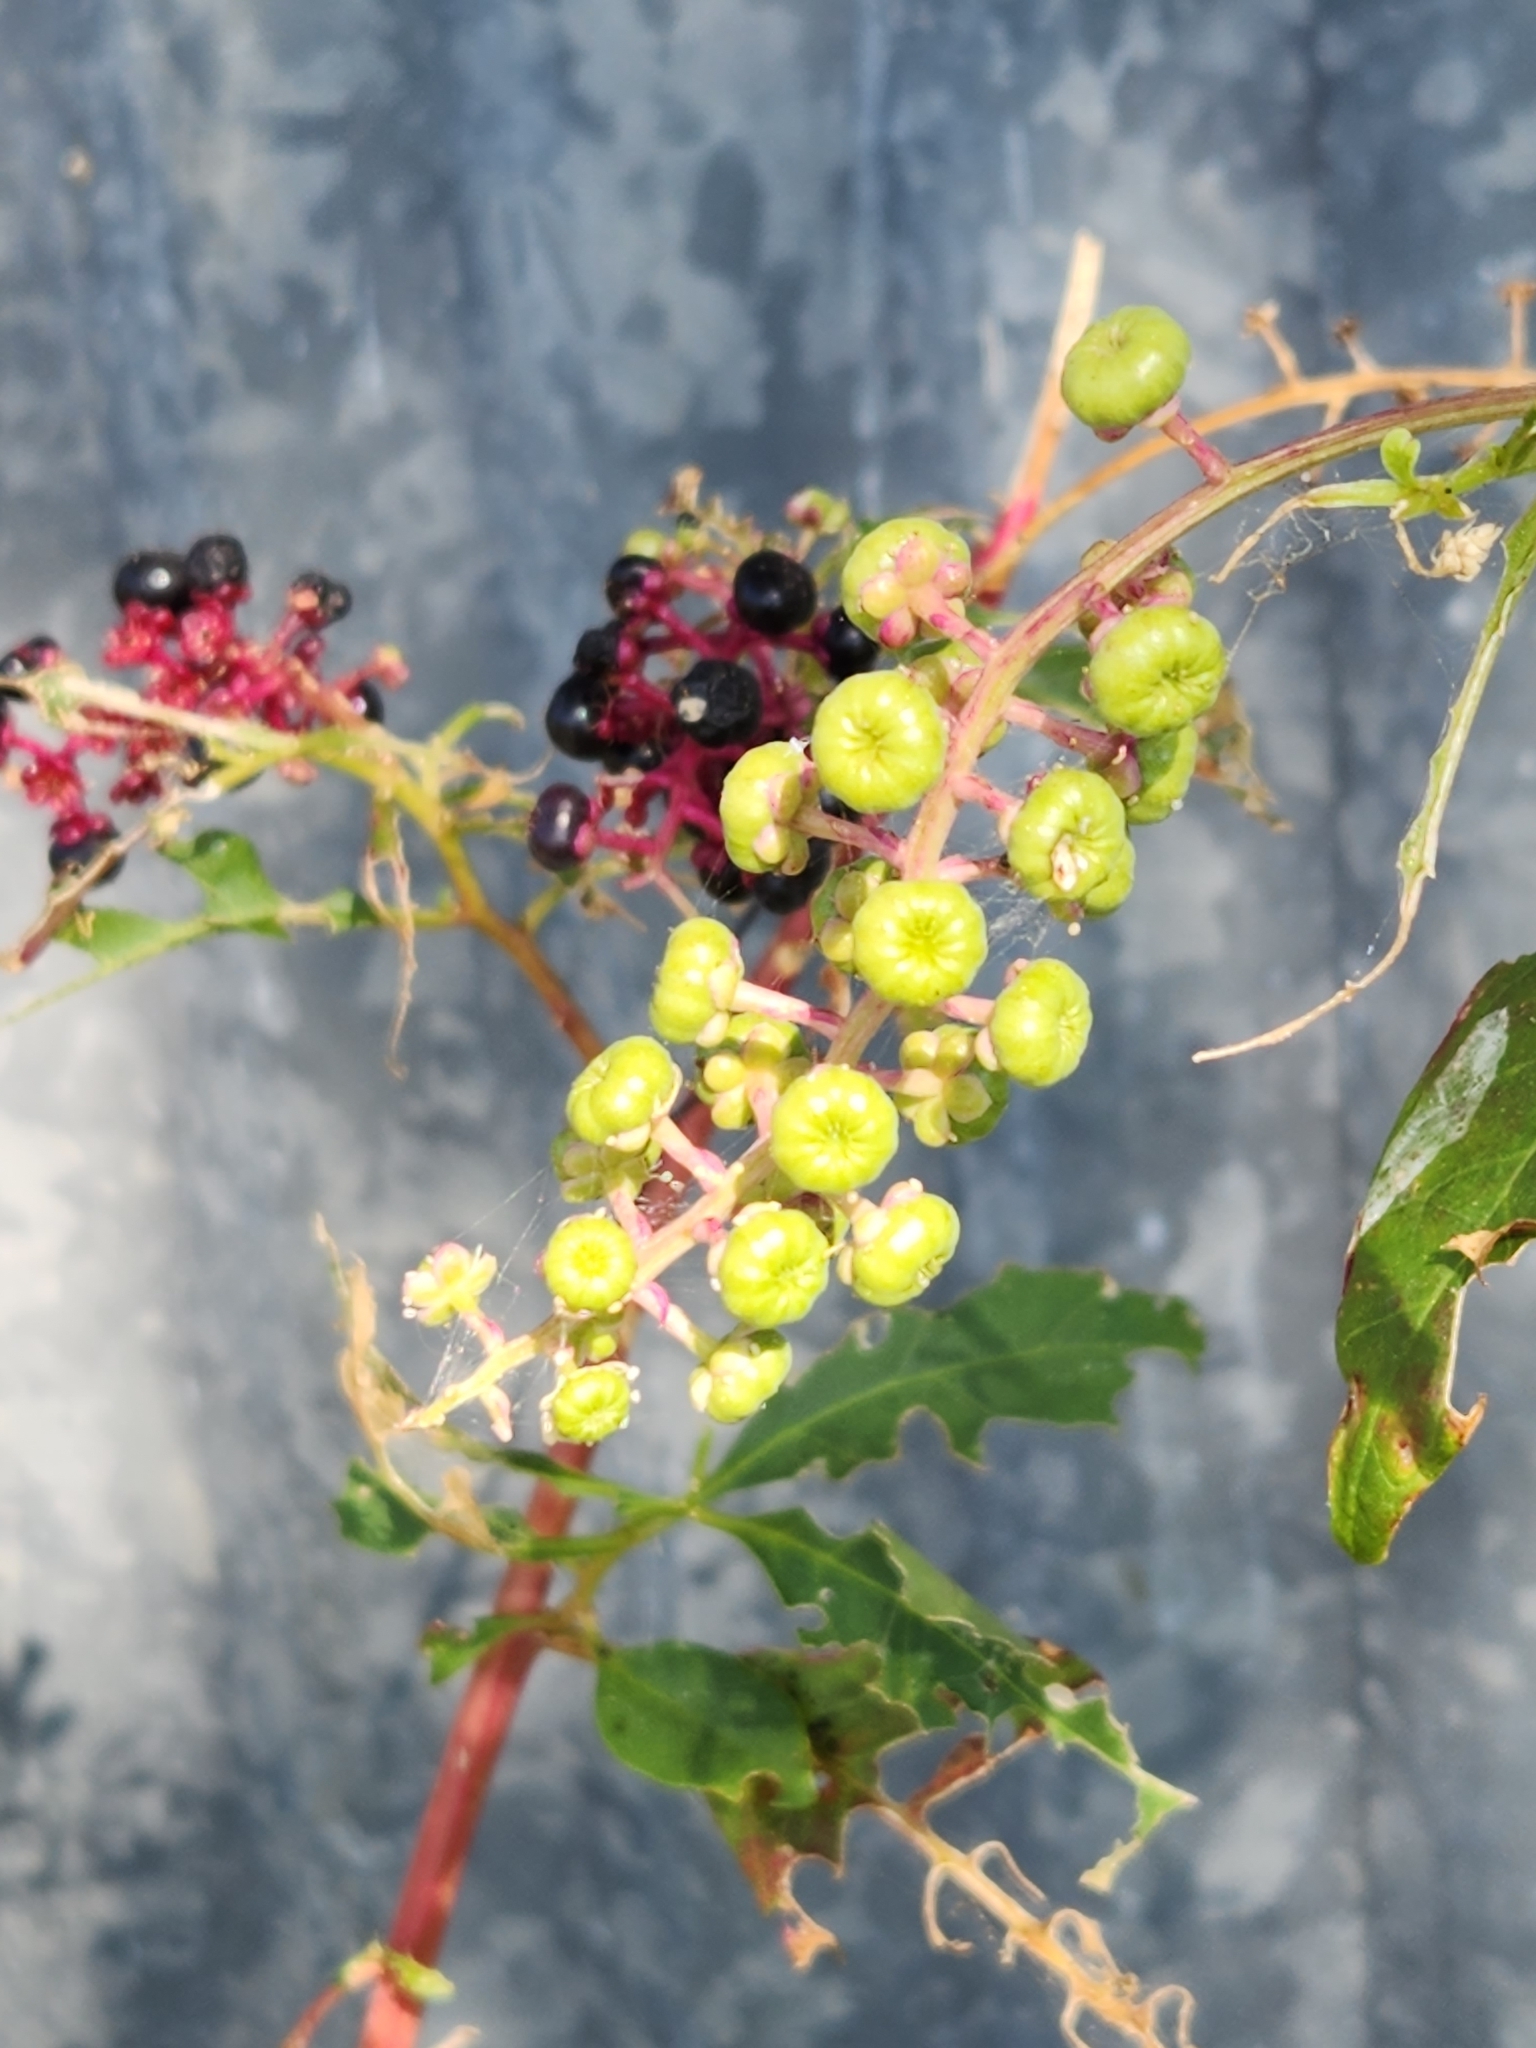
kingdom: Plantae
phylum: Tracheophyta
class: Magnoliopsida
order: Caryophyllales
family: Phytolaccaceae
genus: Phytolacca
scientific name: Phytolacca americana
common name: American pokeweed
